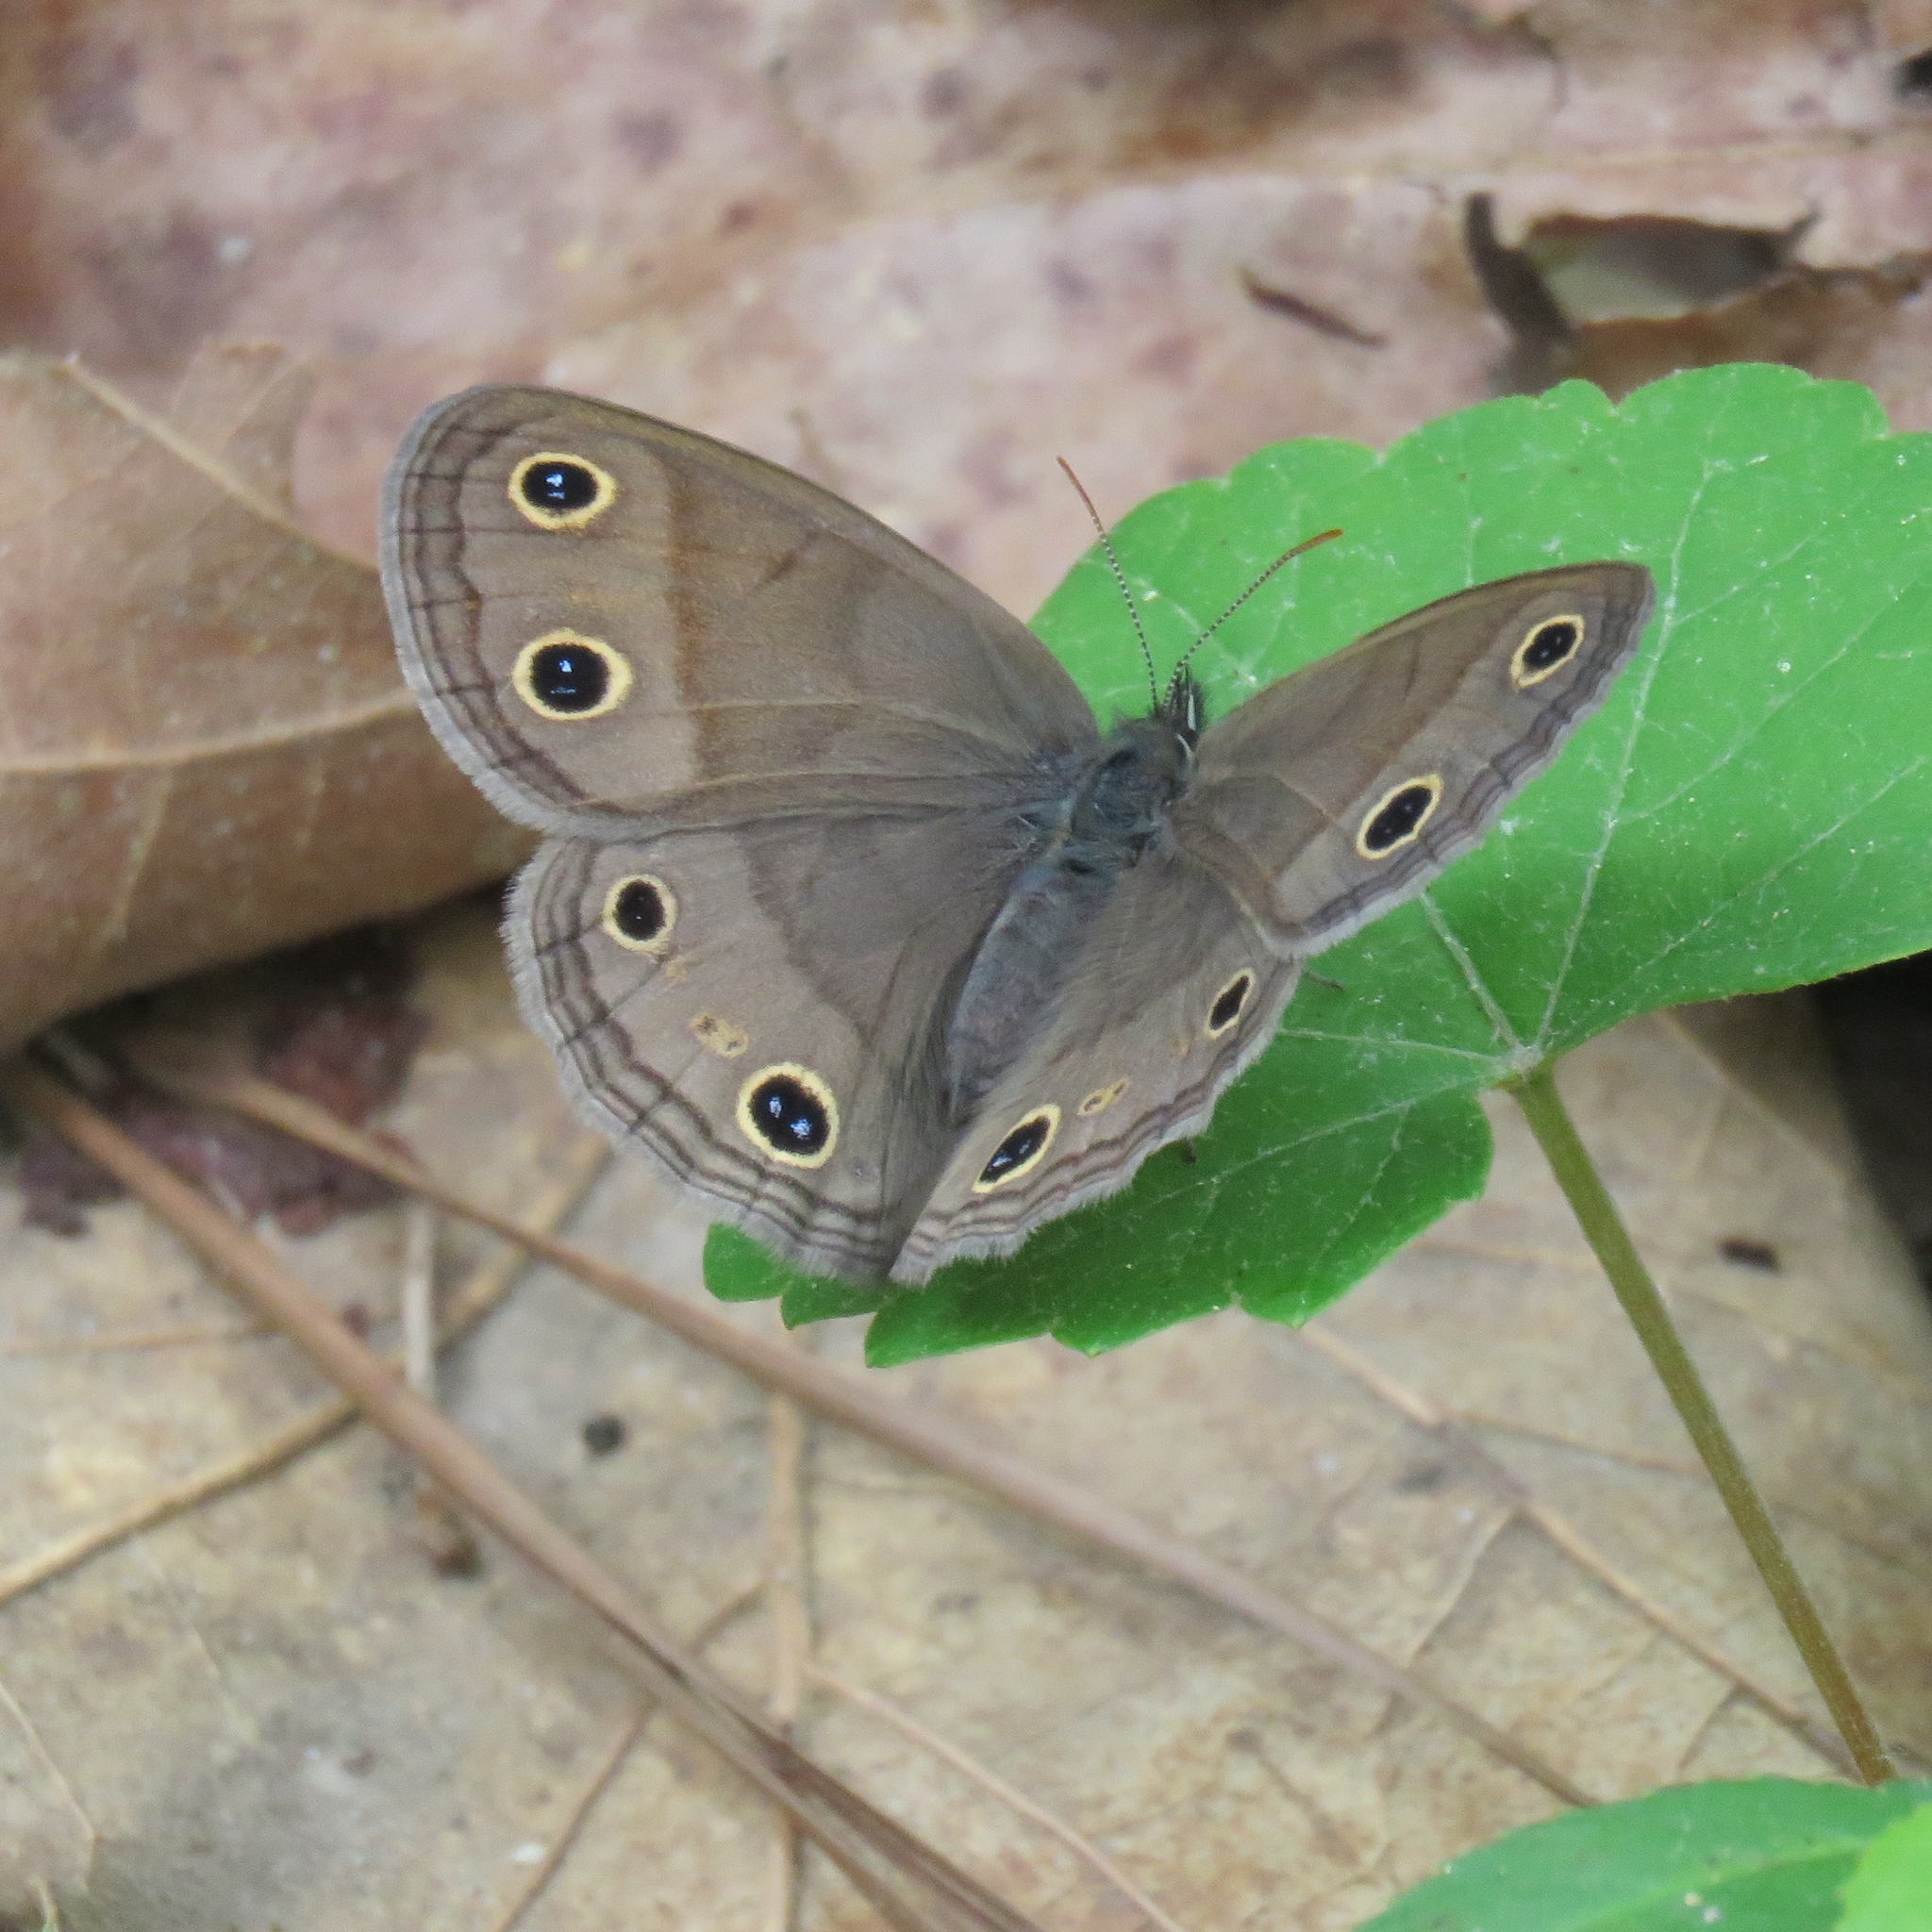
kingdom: Animalia
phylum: Arthropoda
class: Insecta
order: Lepidoptera
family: Nymphalidae
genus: Euptychia
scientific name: Euptychia cymela
